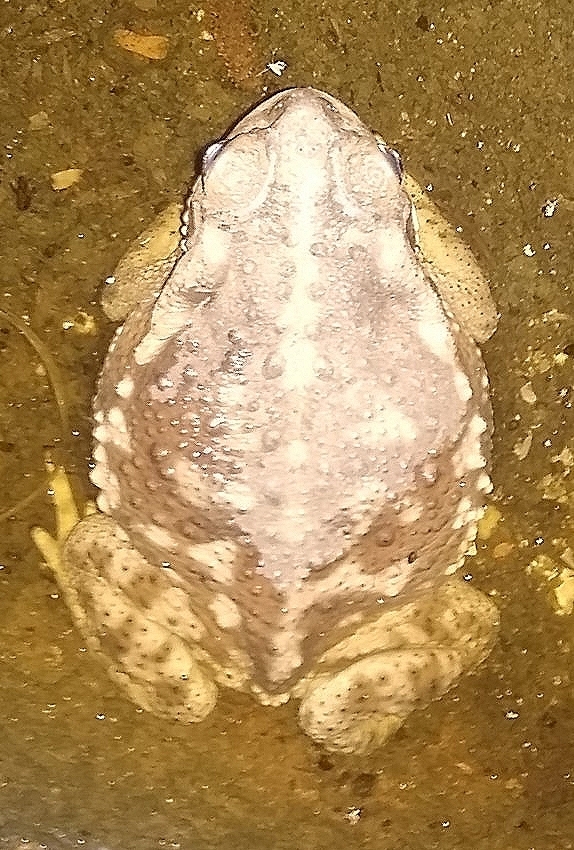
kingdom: Animalia
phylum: Chordata
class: Amphibia
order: Anura
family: Bufonidae
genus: Rhinella
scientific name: Rhinella arenarum
